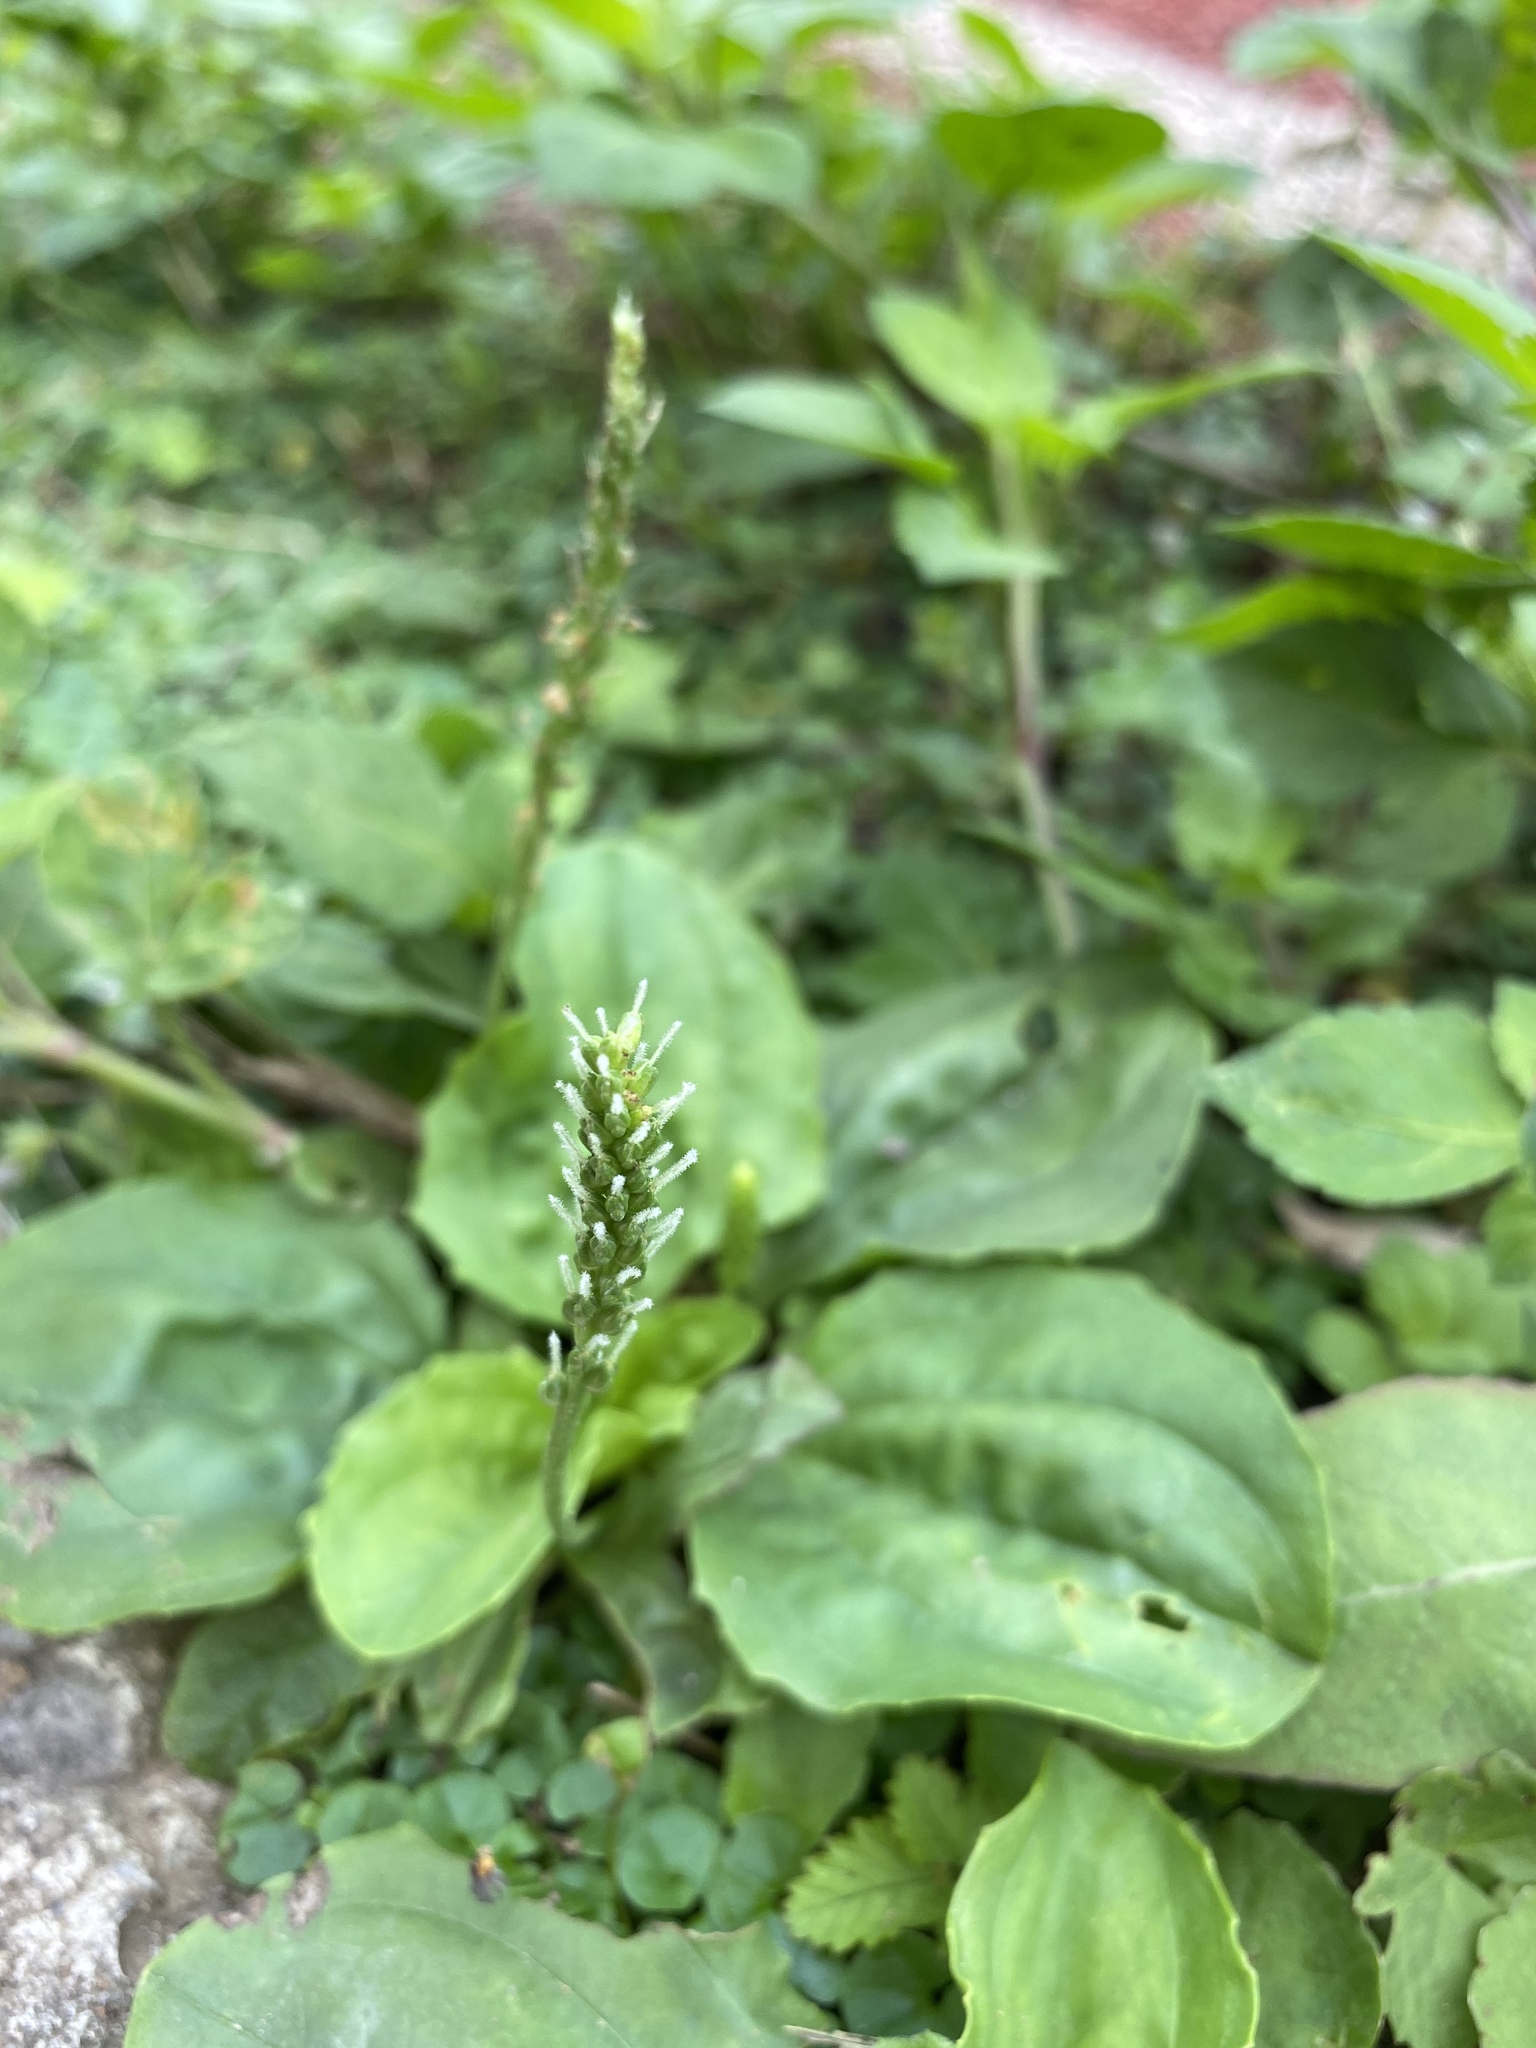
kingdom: Plantae
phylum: Tracheophyta
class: Magnoliopsida
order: Lamiales
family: Plantaginaceae
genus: Plantago
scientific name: Plantago asiatica
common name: Psyllium
